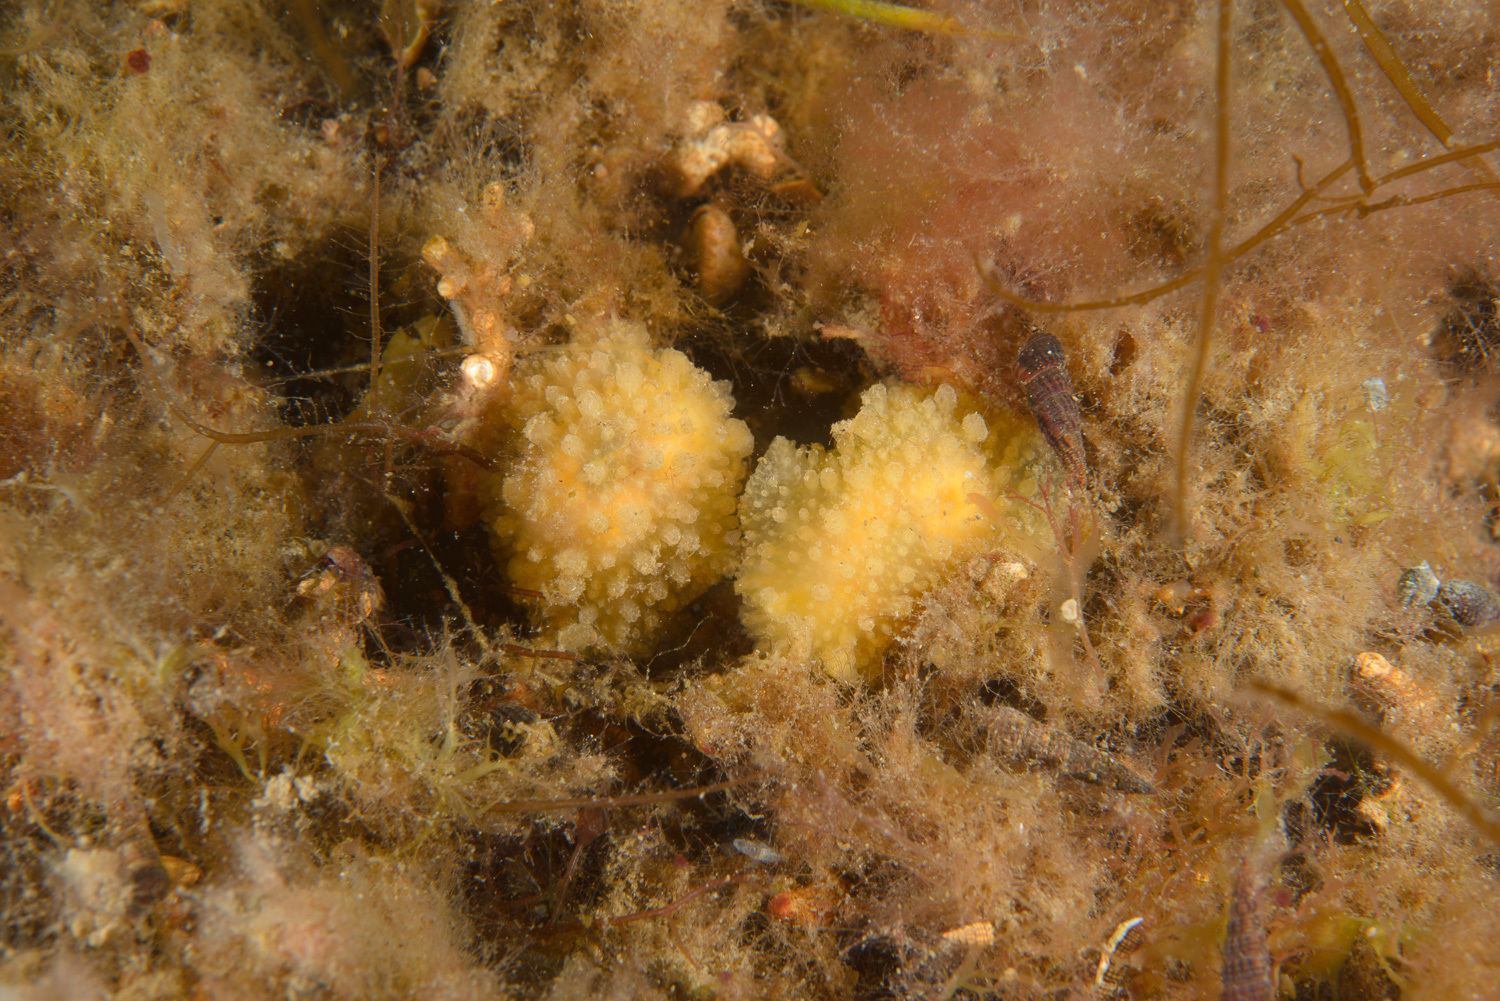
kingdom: Animalia
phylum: Mollusca
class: Gastropoda
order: Nudibranchia
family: Dorididae
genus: Doris
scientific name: Doris ocelligera
